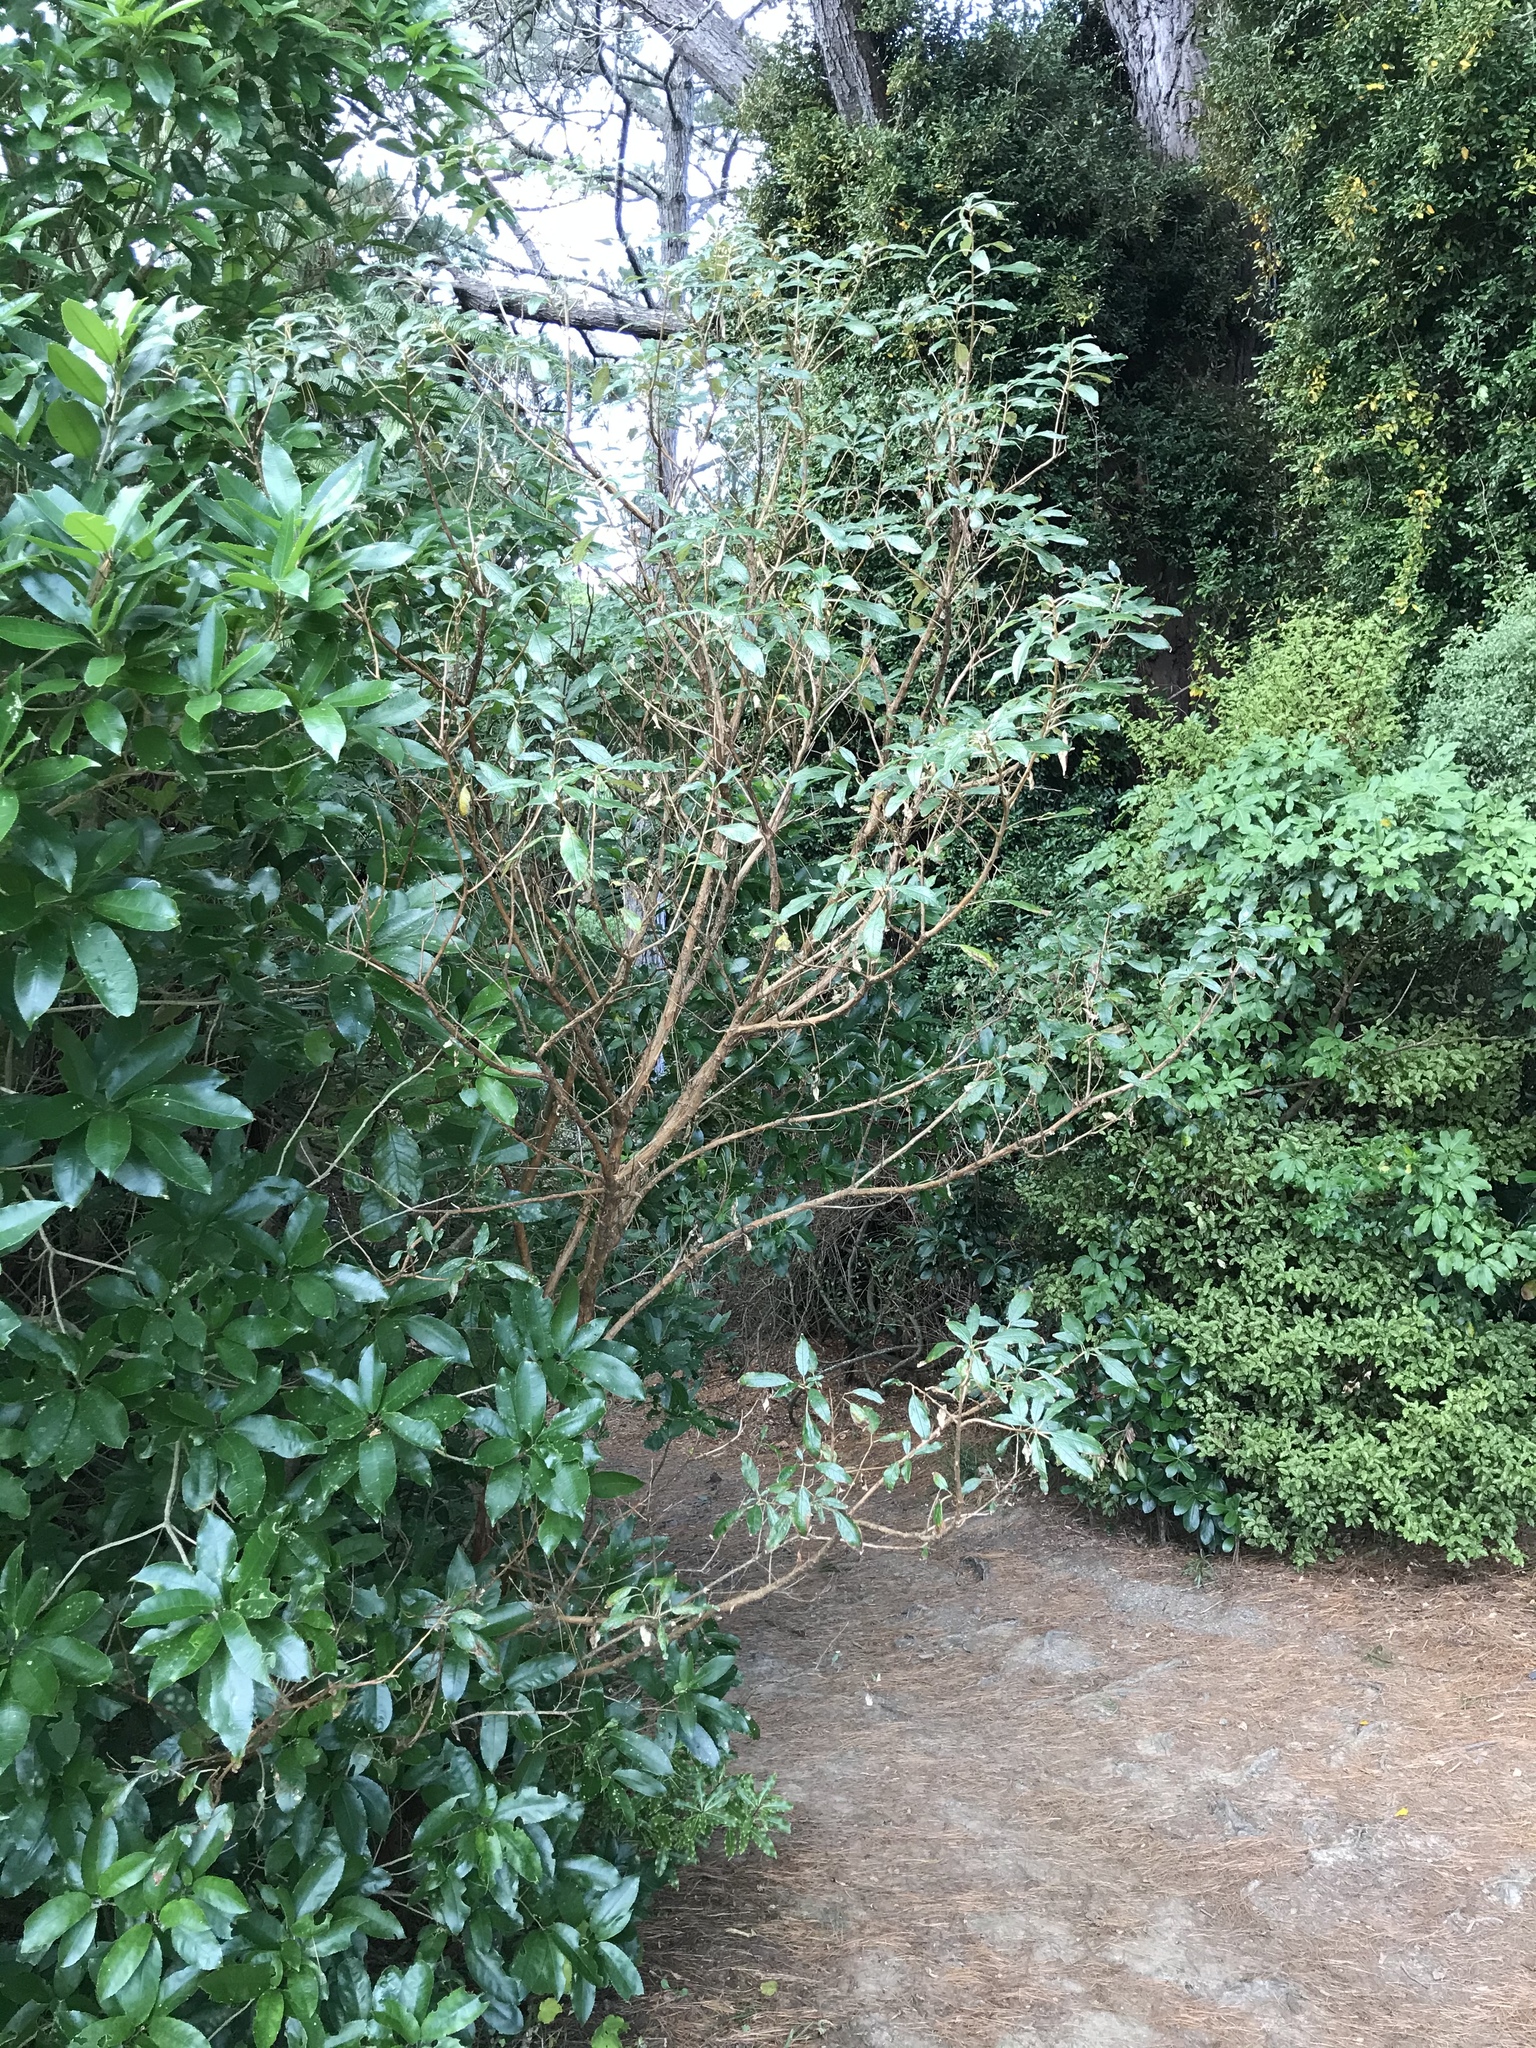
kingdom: Plantae
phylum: Tracheophyta
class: Magnoliopsida
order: Myrtales
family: Onagraceae
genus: Fuchsia
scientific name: Fuchsia excorticata
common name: Tree fuchsia
